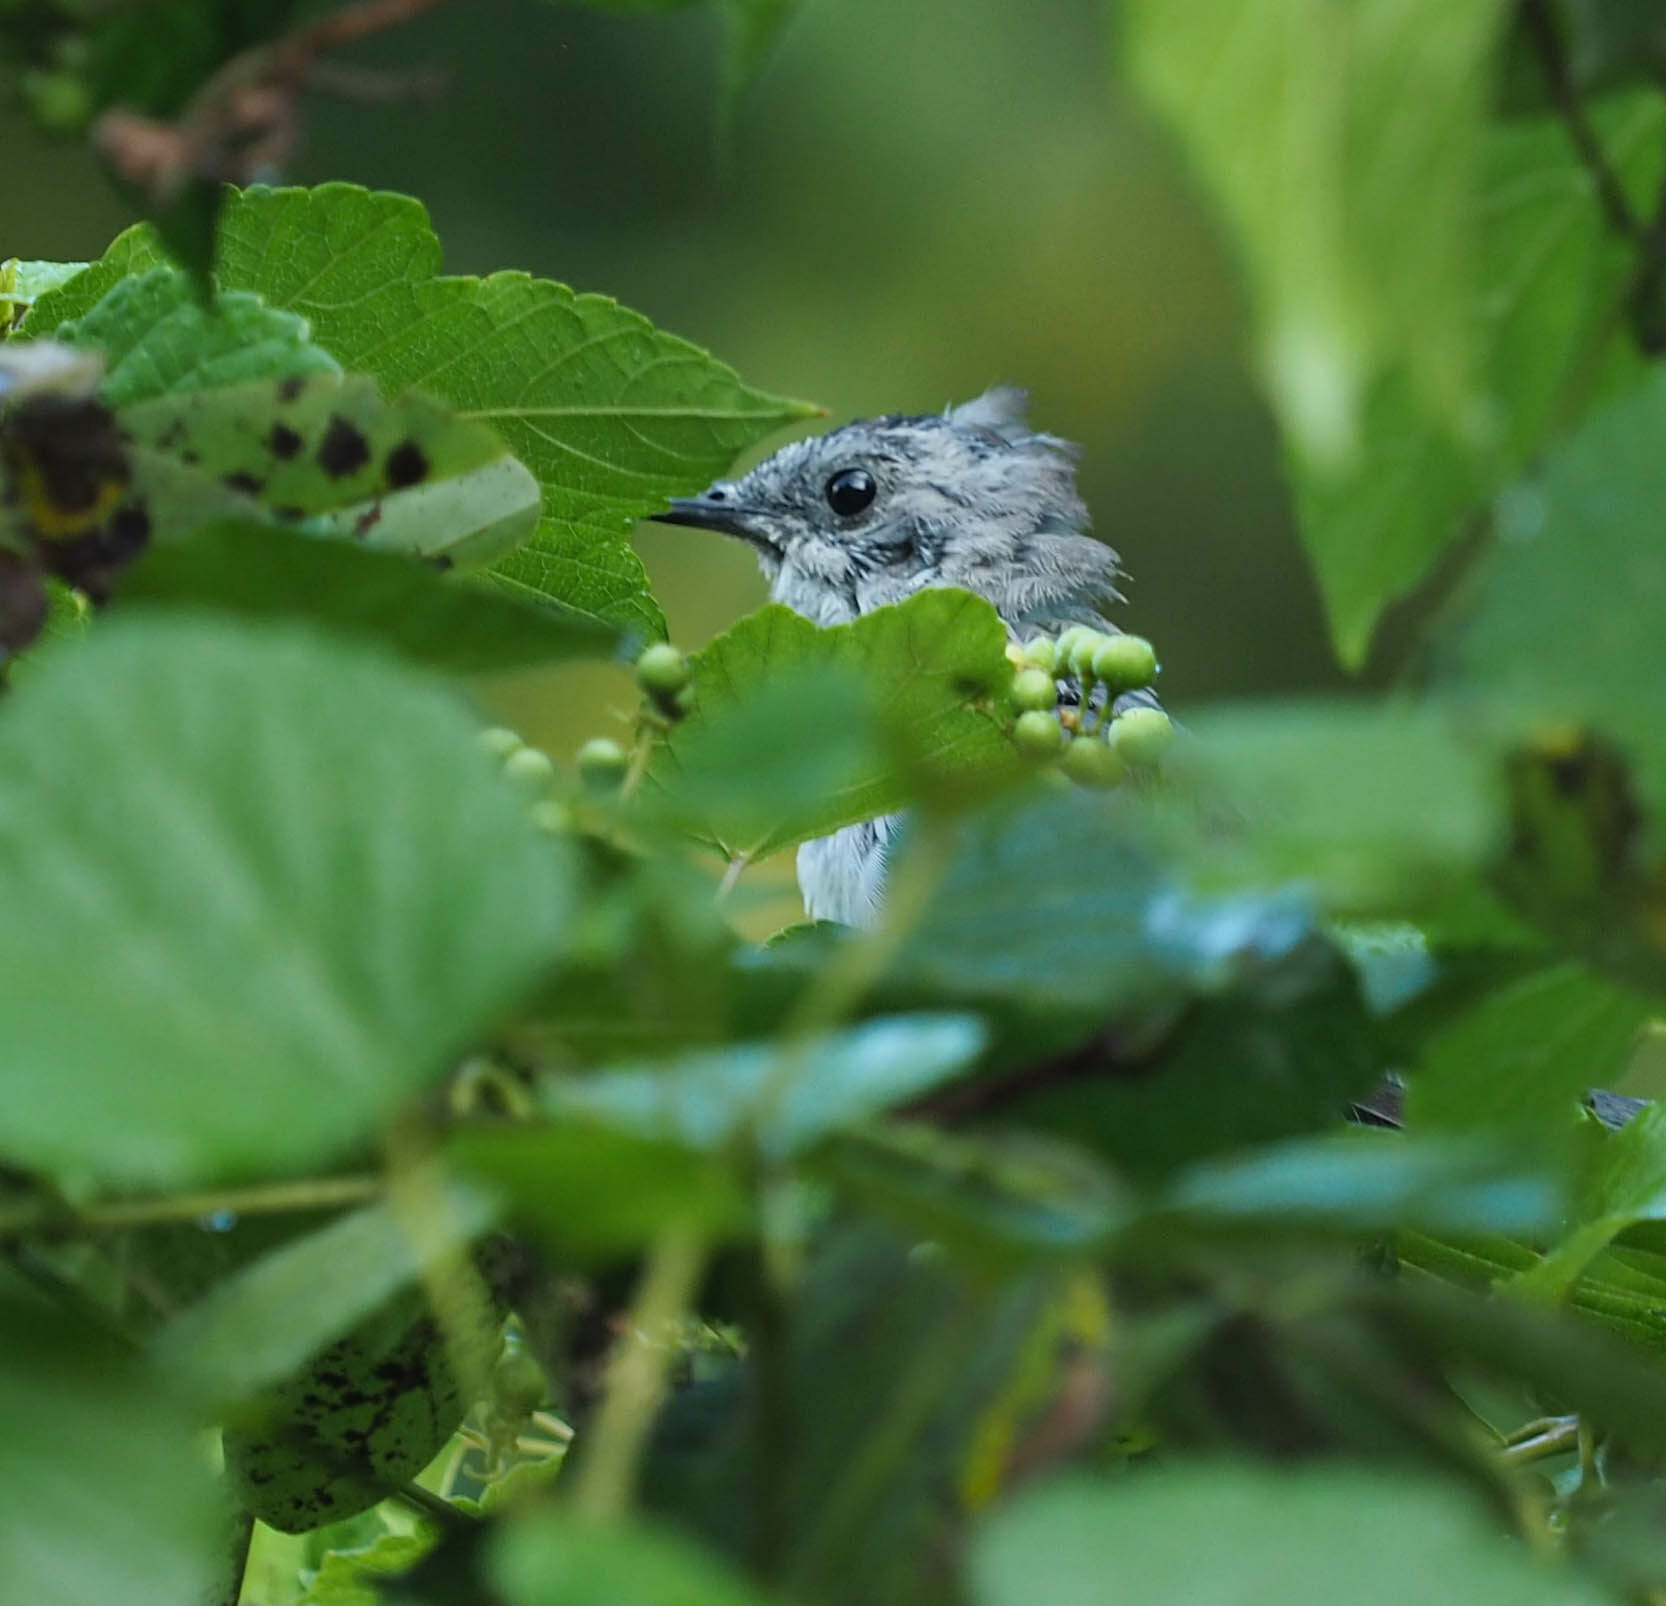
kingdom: Animalia
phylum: Chordata
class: Aves
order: Passeriformes
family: Mimidae
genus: Dumetella
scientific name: Dumetella carolinensis
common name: Gray catbird
